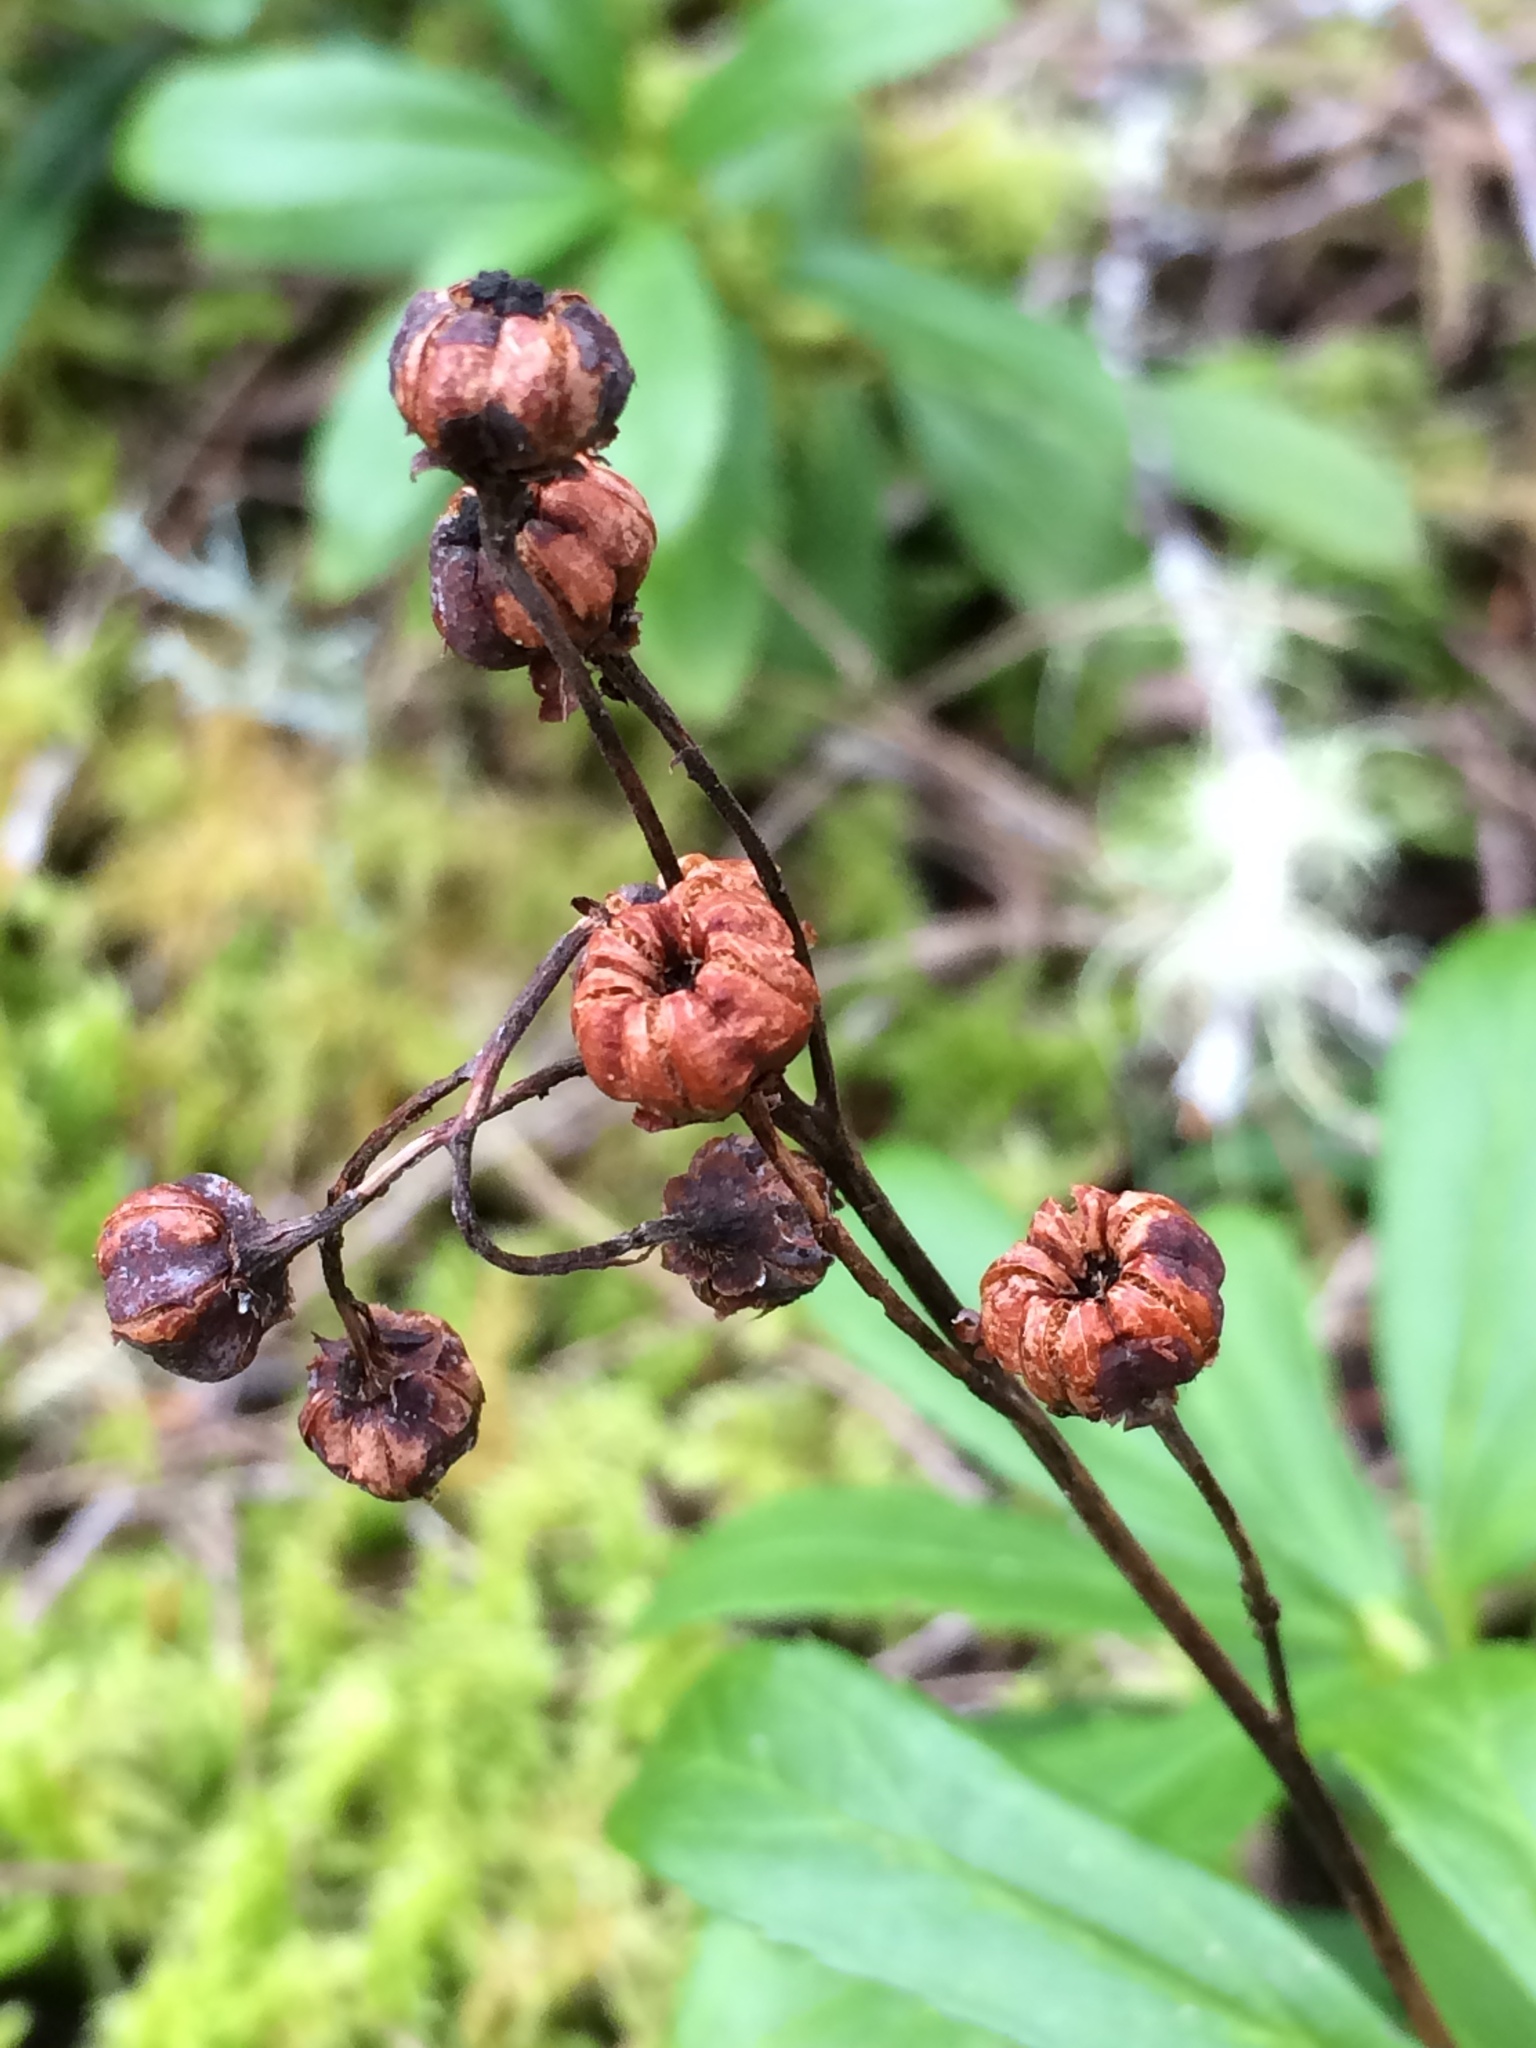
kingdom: Plantae
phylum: Tracheophyta
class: Magnoliopsida
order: Ericales
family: Ericaceae
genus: Chimaphila
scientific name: Chimaphila umbellata
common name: Pipsissewa
